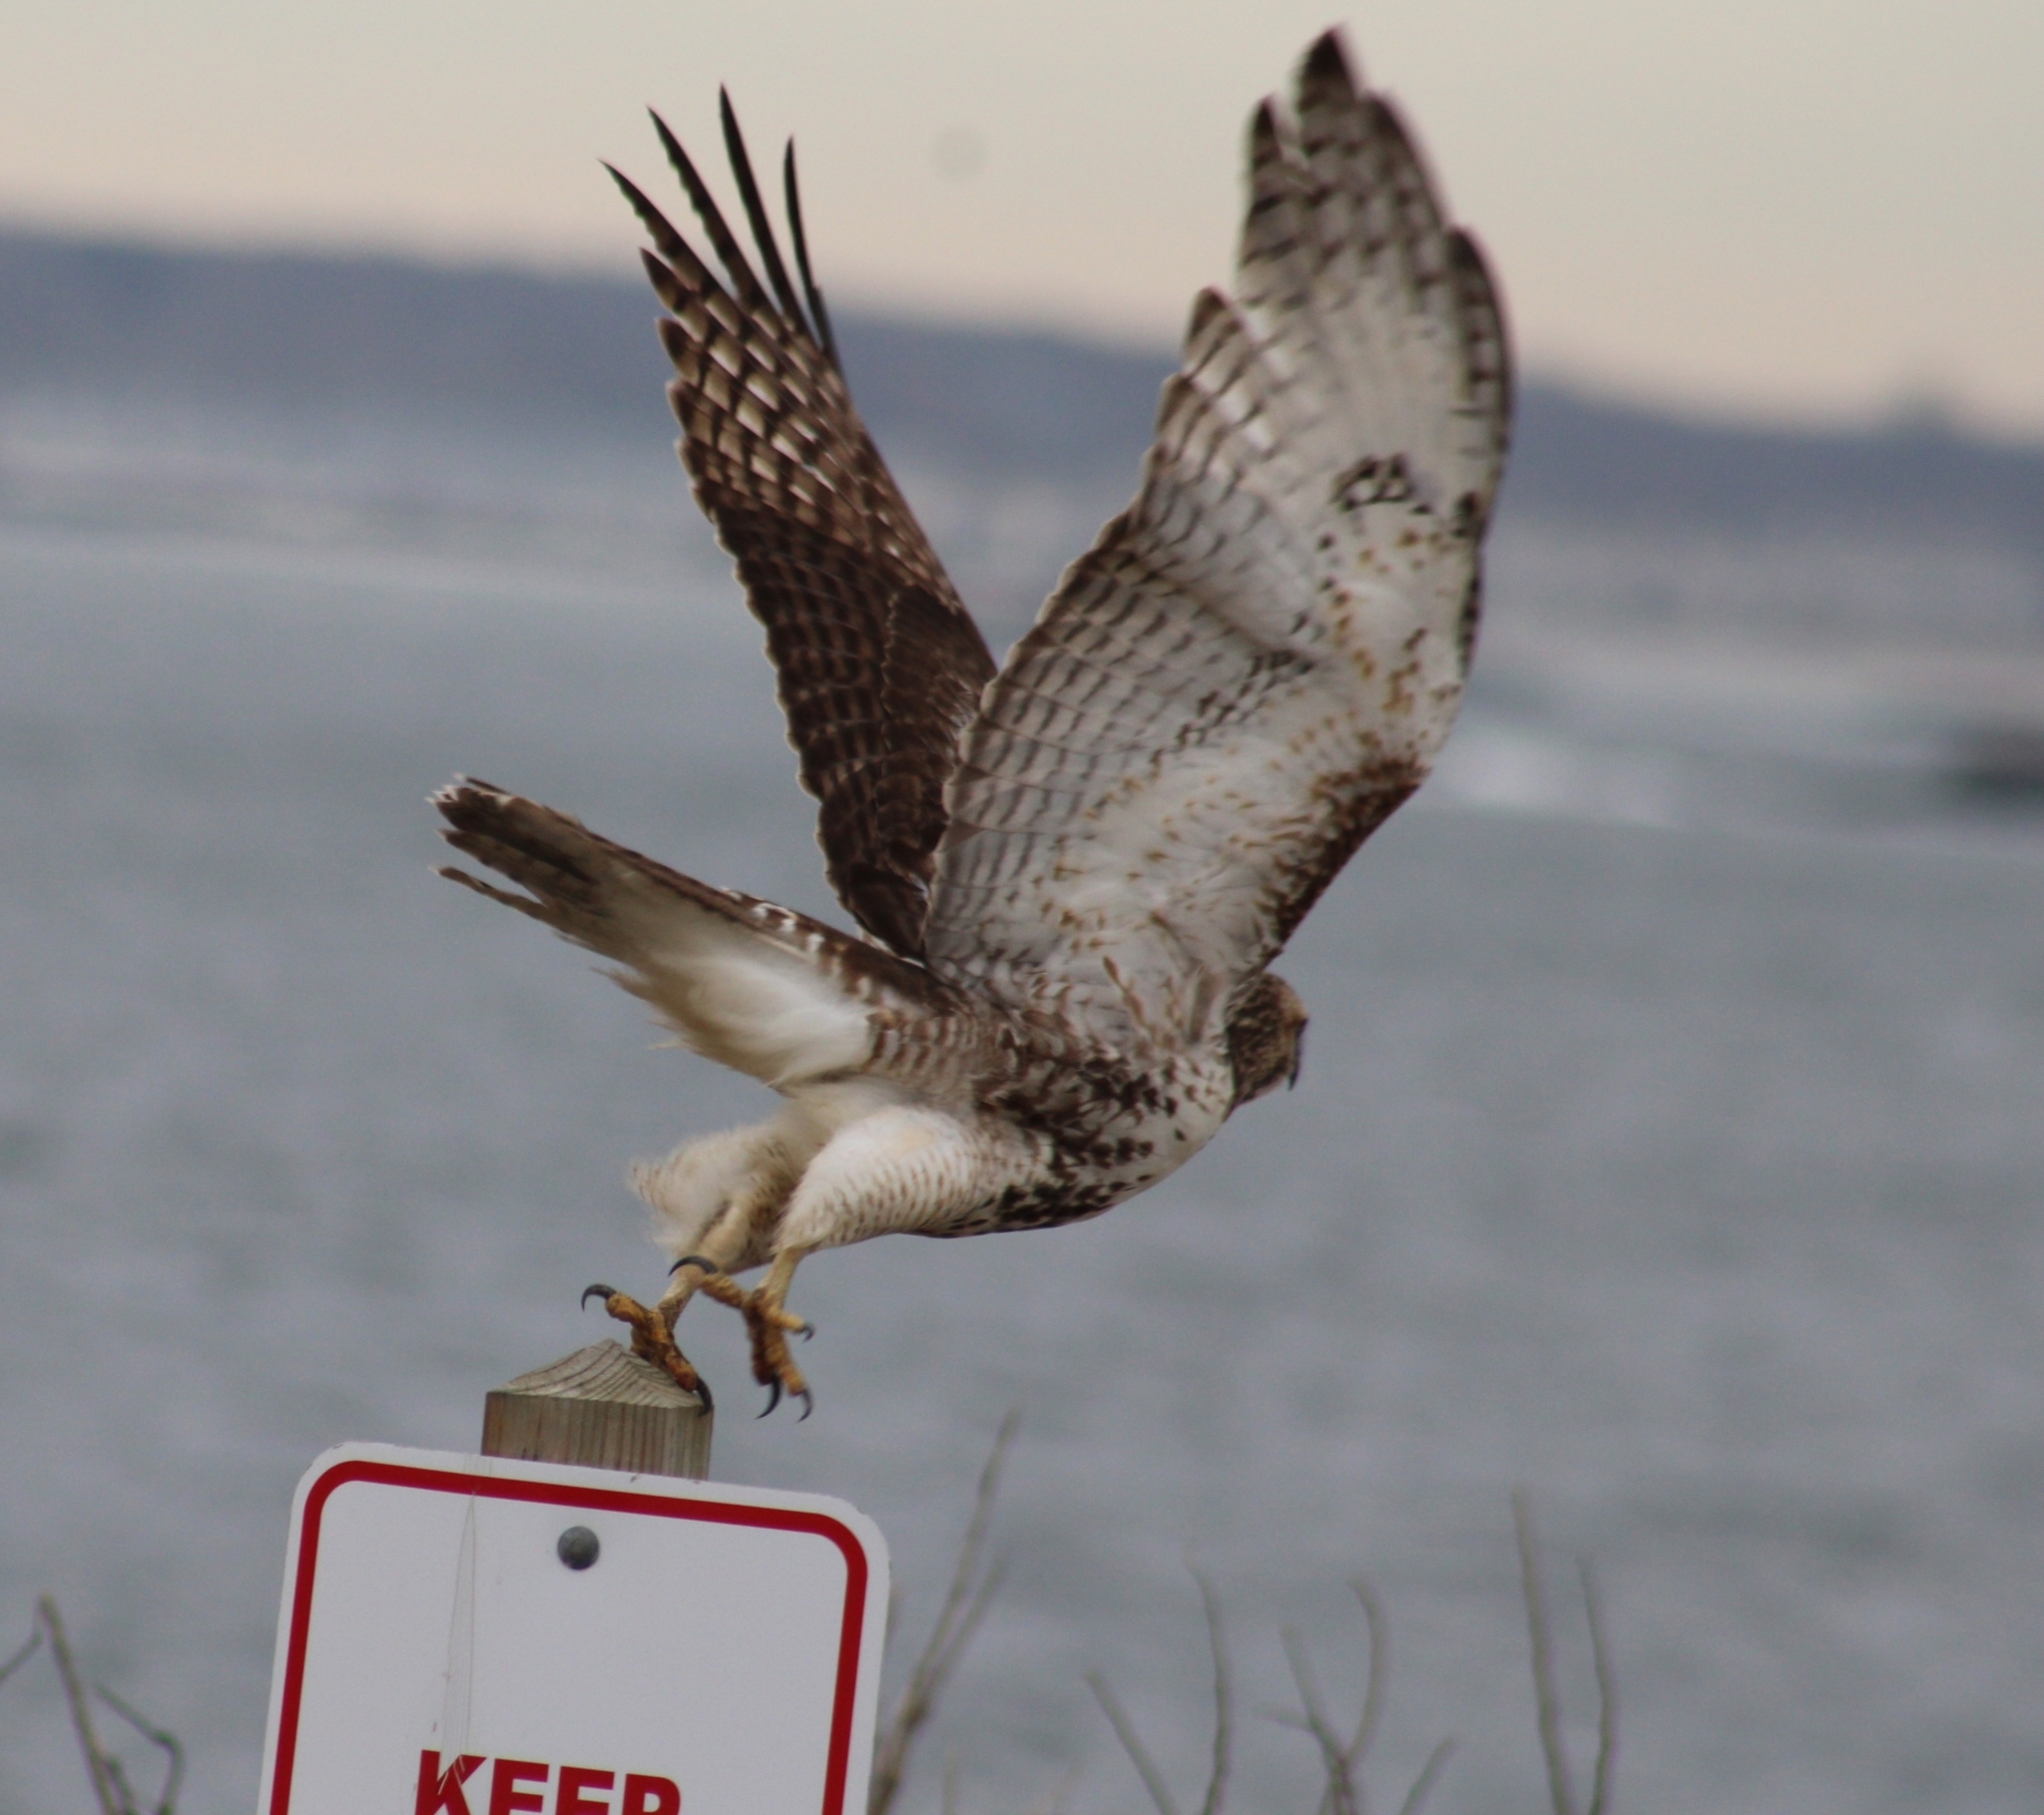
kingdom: Animalia
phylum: Chordata
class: Aves
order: Accipitriformes
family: Accipitridae
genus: Buteo
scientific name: Buteo jamaicensis
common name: Red-tailed hawk
